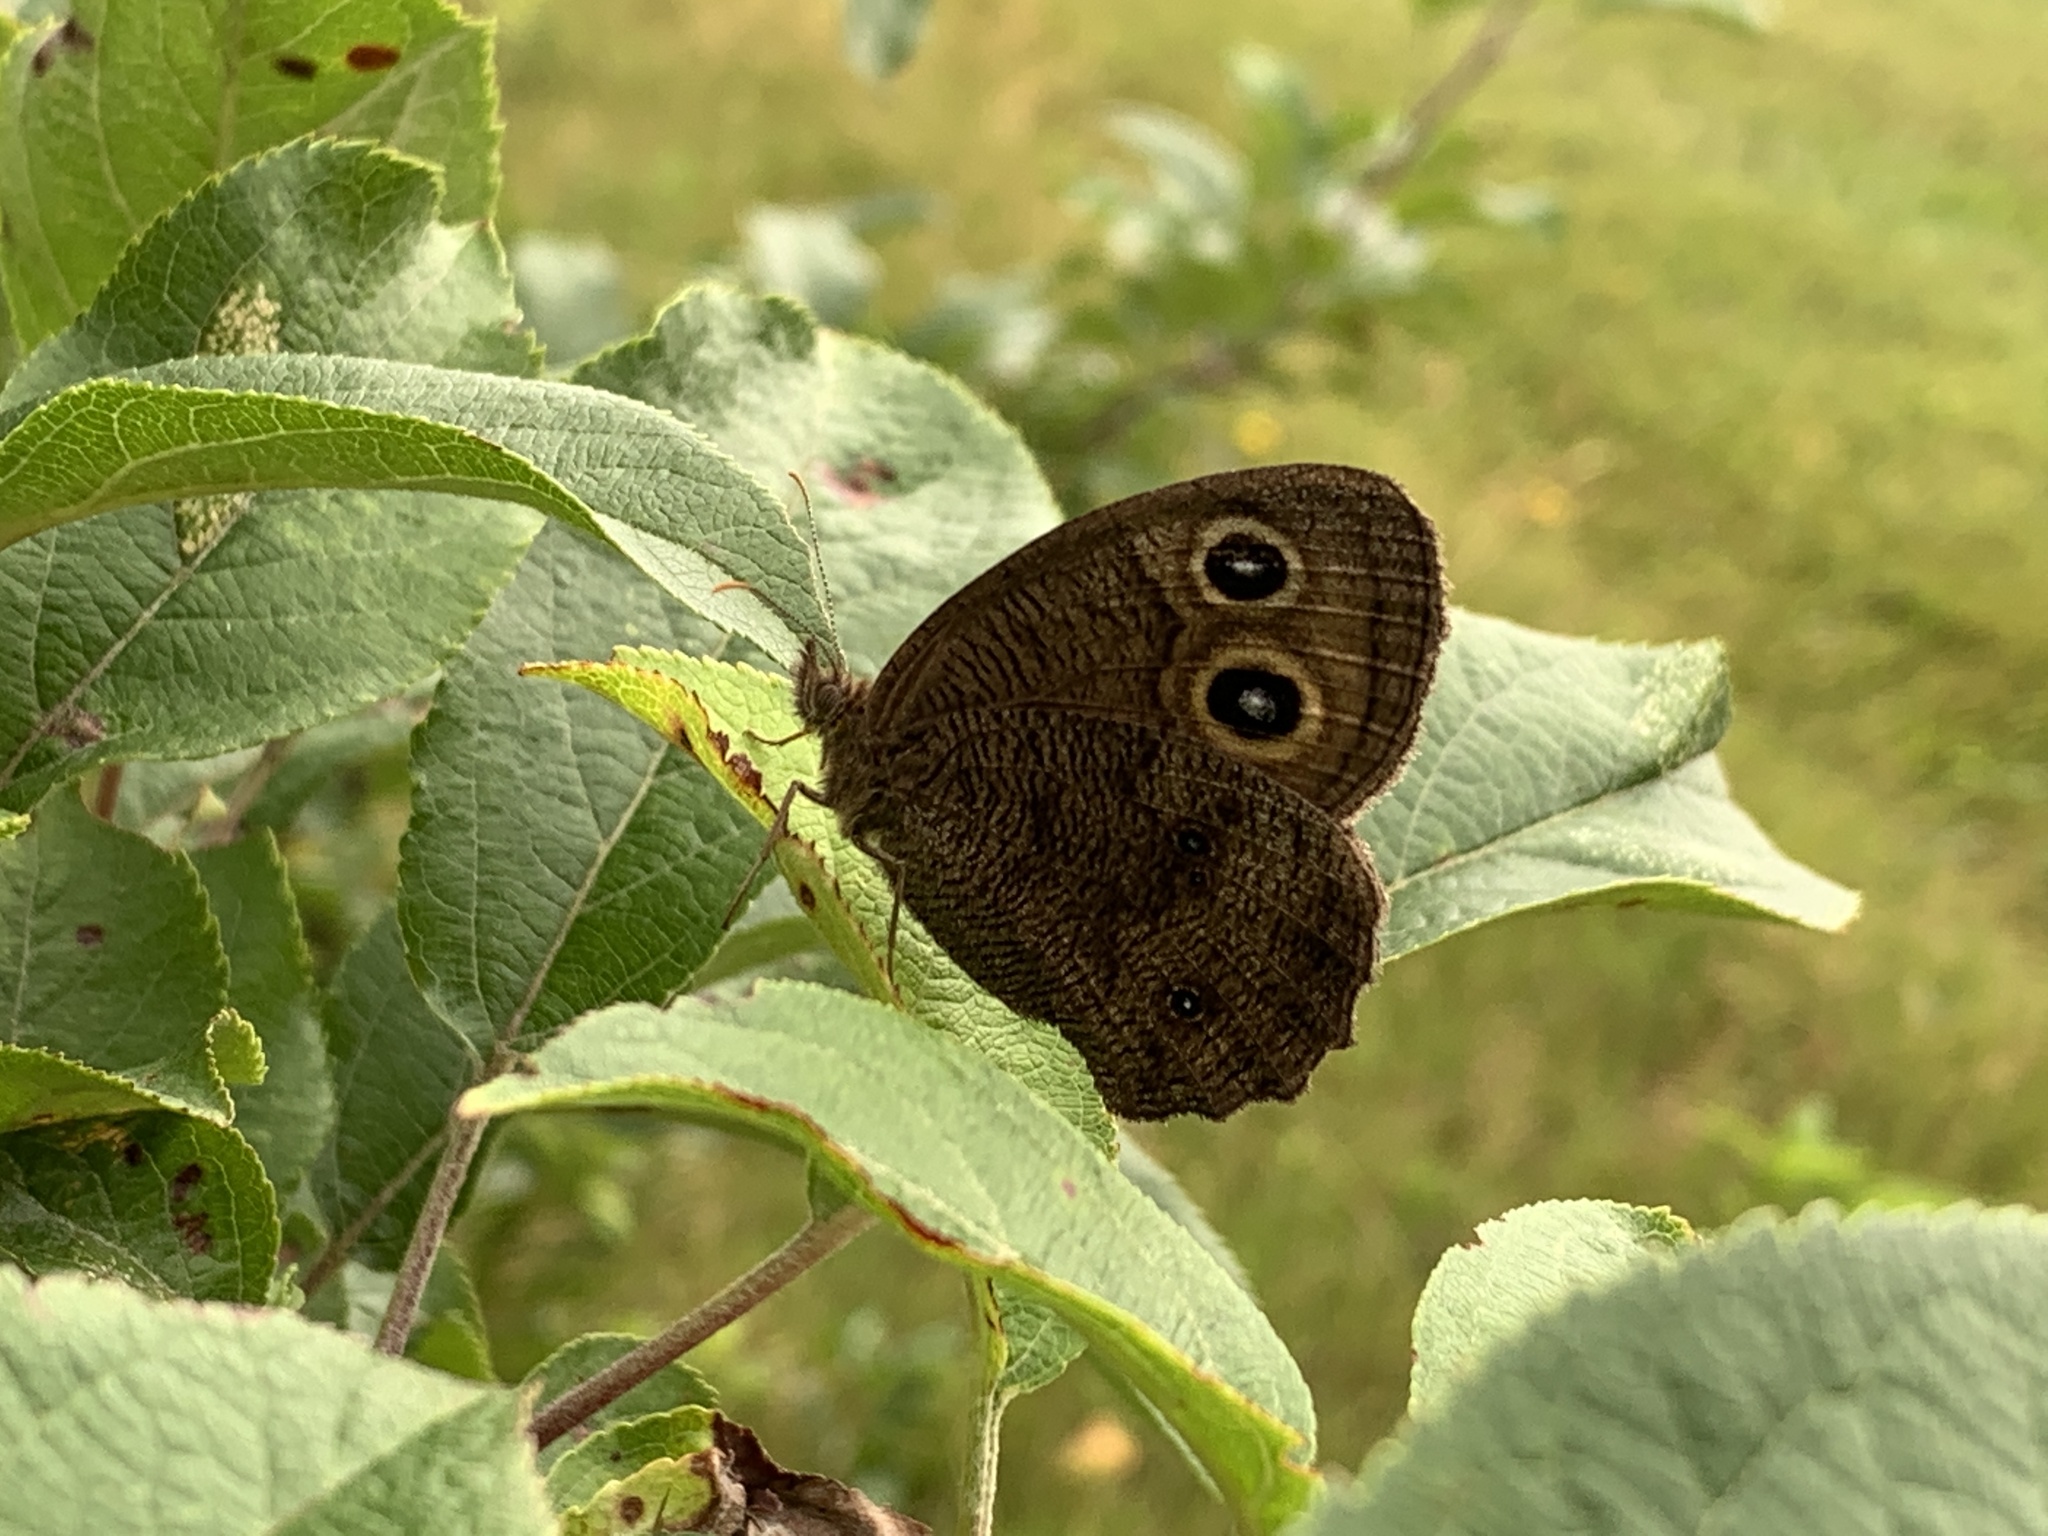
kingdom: Animalia
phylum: Arthropoda
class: Insecta
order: Lepidoptera
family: Nymphalidae
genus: Cercyonis
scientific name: Cercyonis pegala
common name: Common wood-nymph
